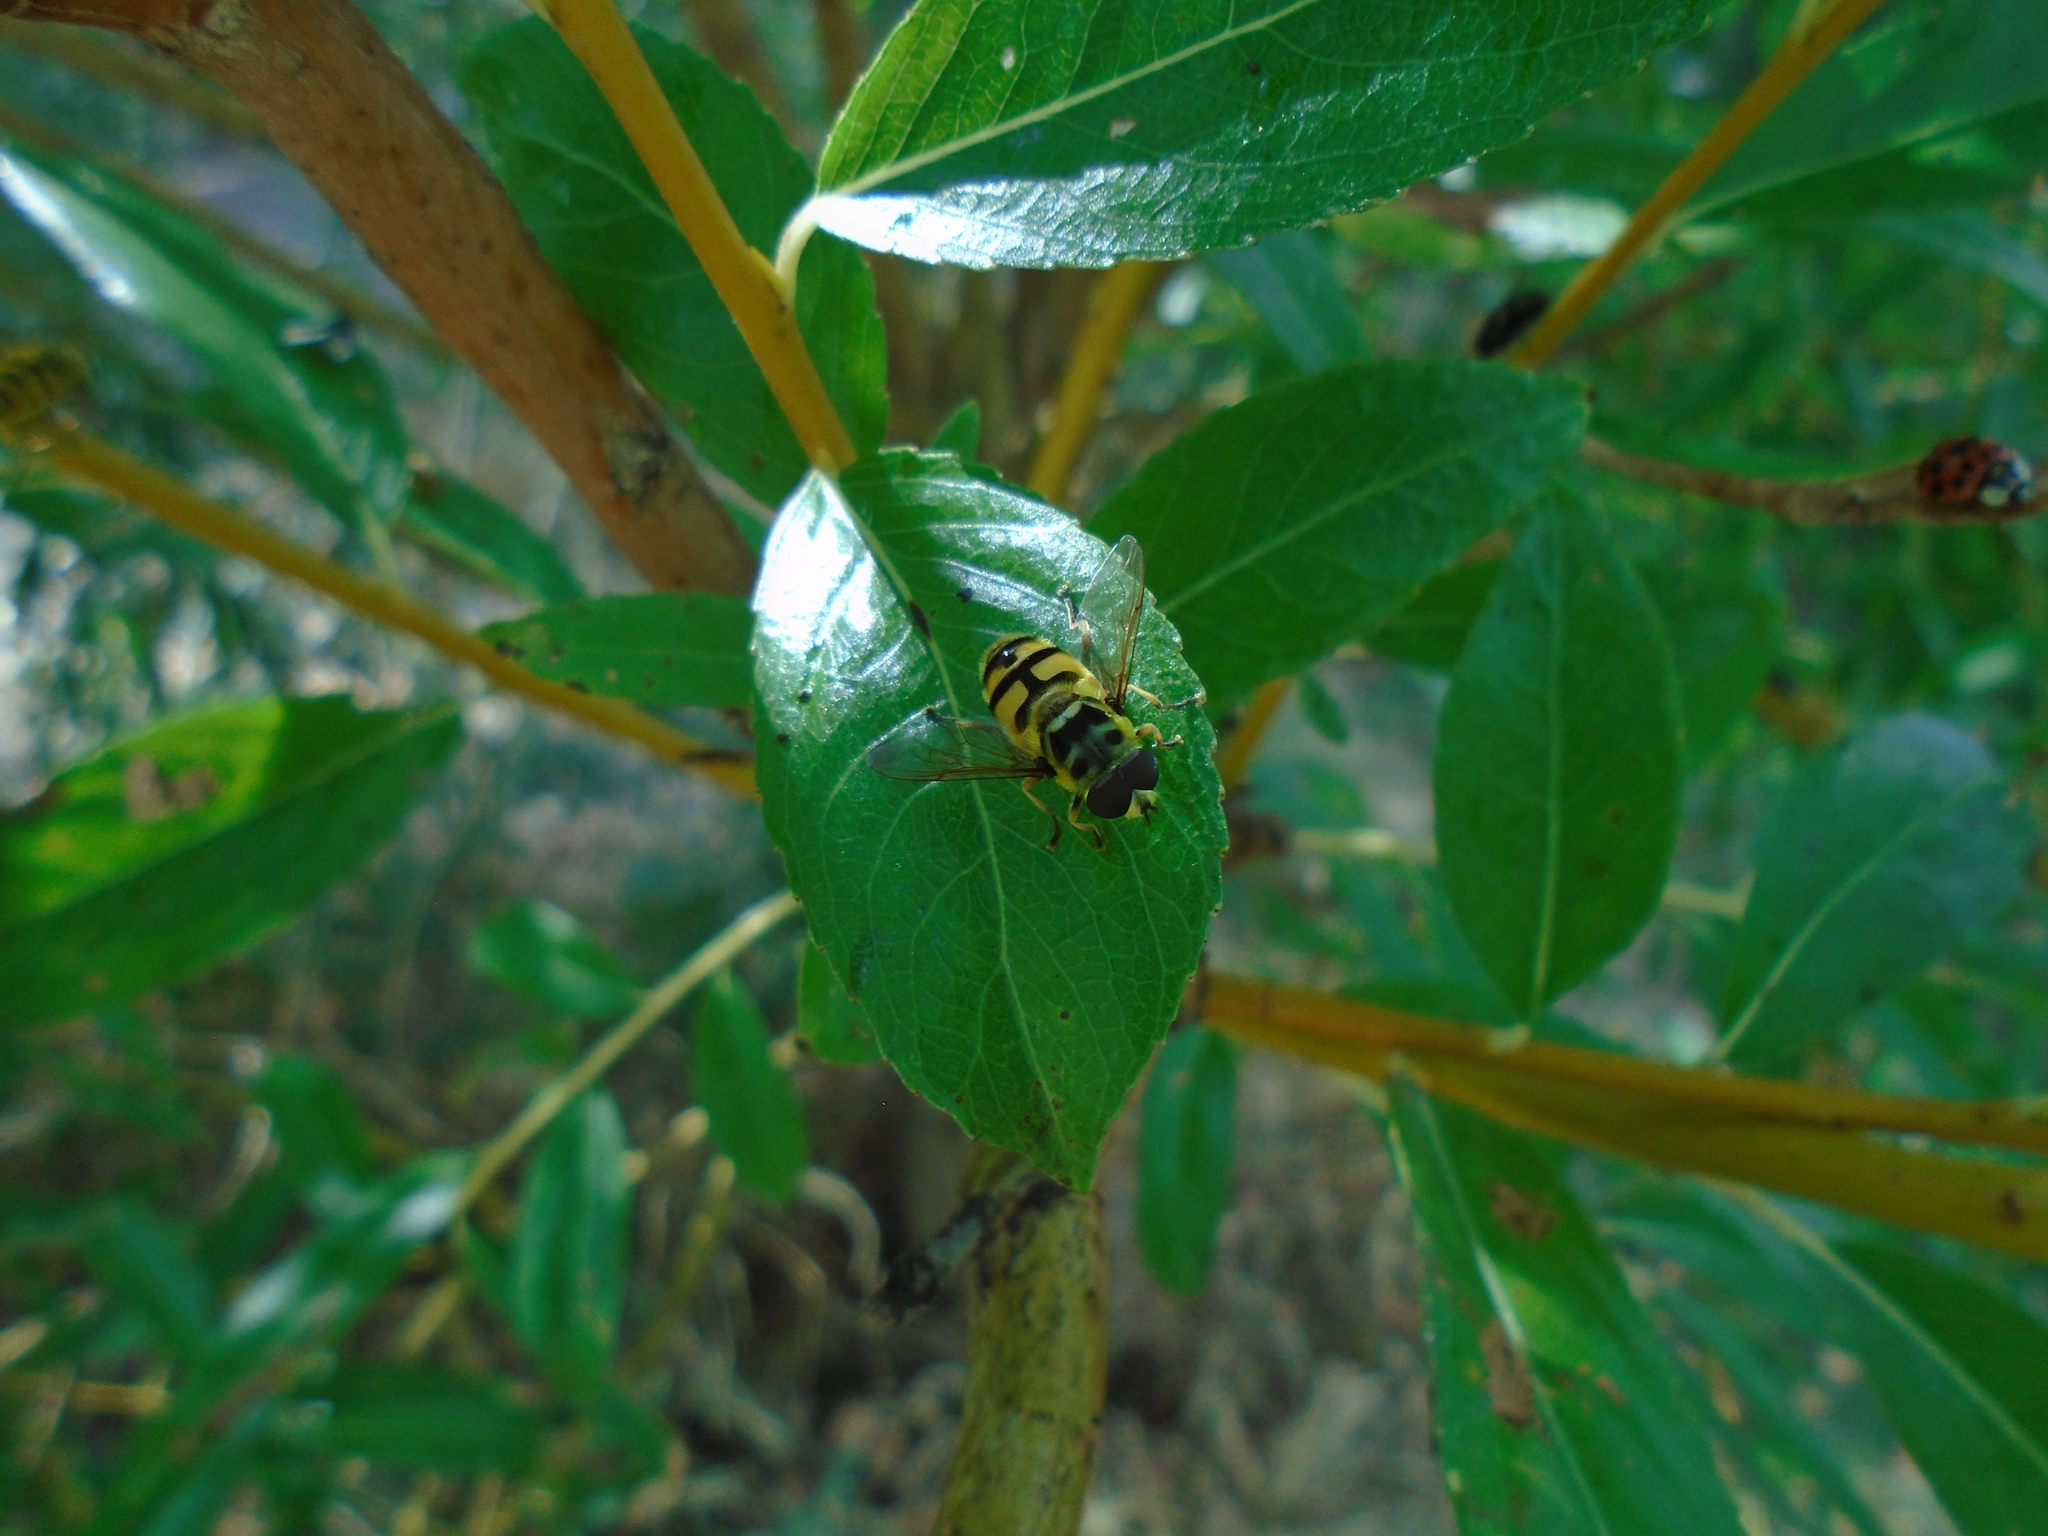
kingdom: Animalia
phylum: Arthropoda
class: Insecta
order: Diptera
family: Syrphidae
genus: Myathropa
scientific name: Myathropa florea
